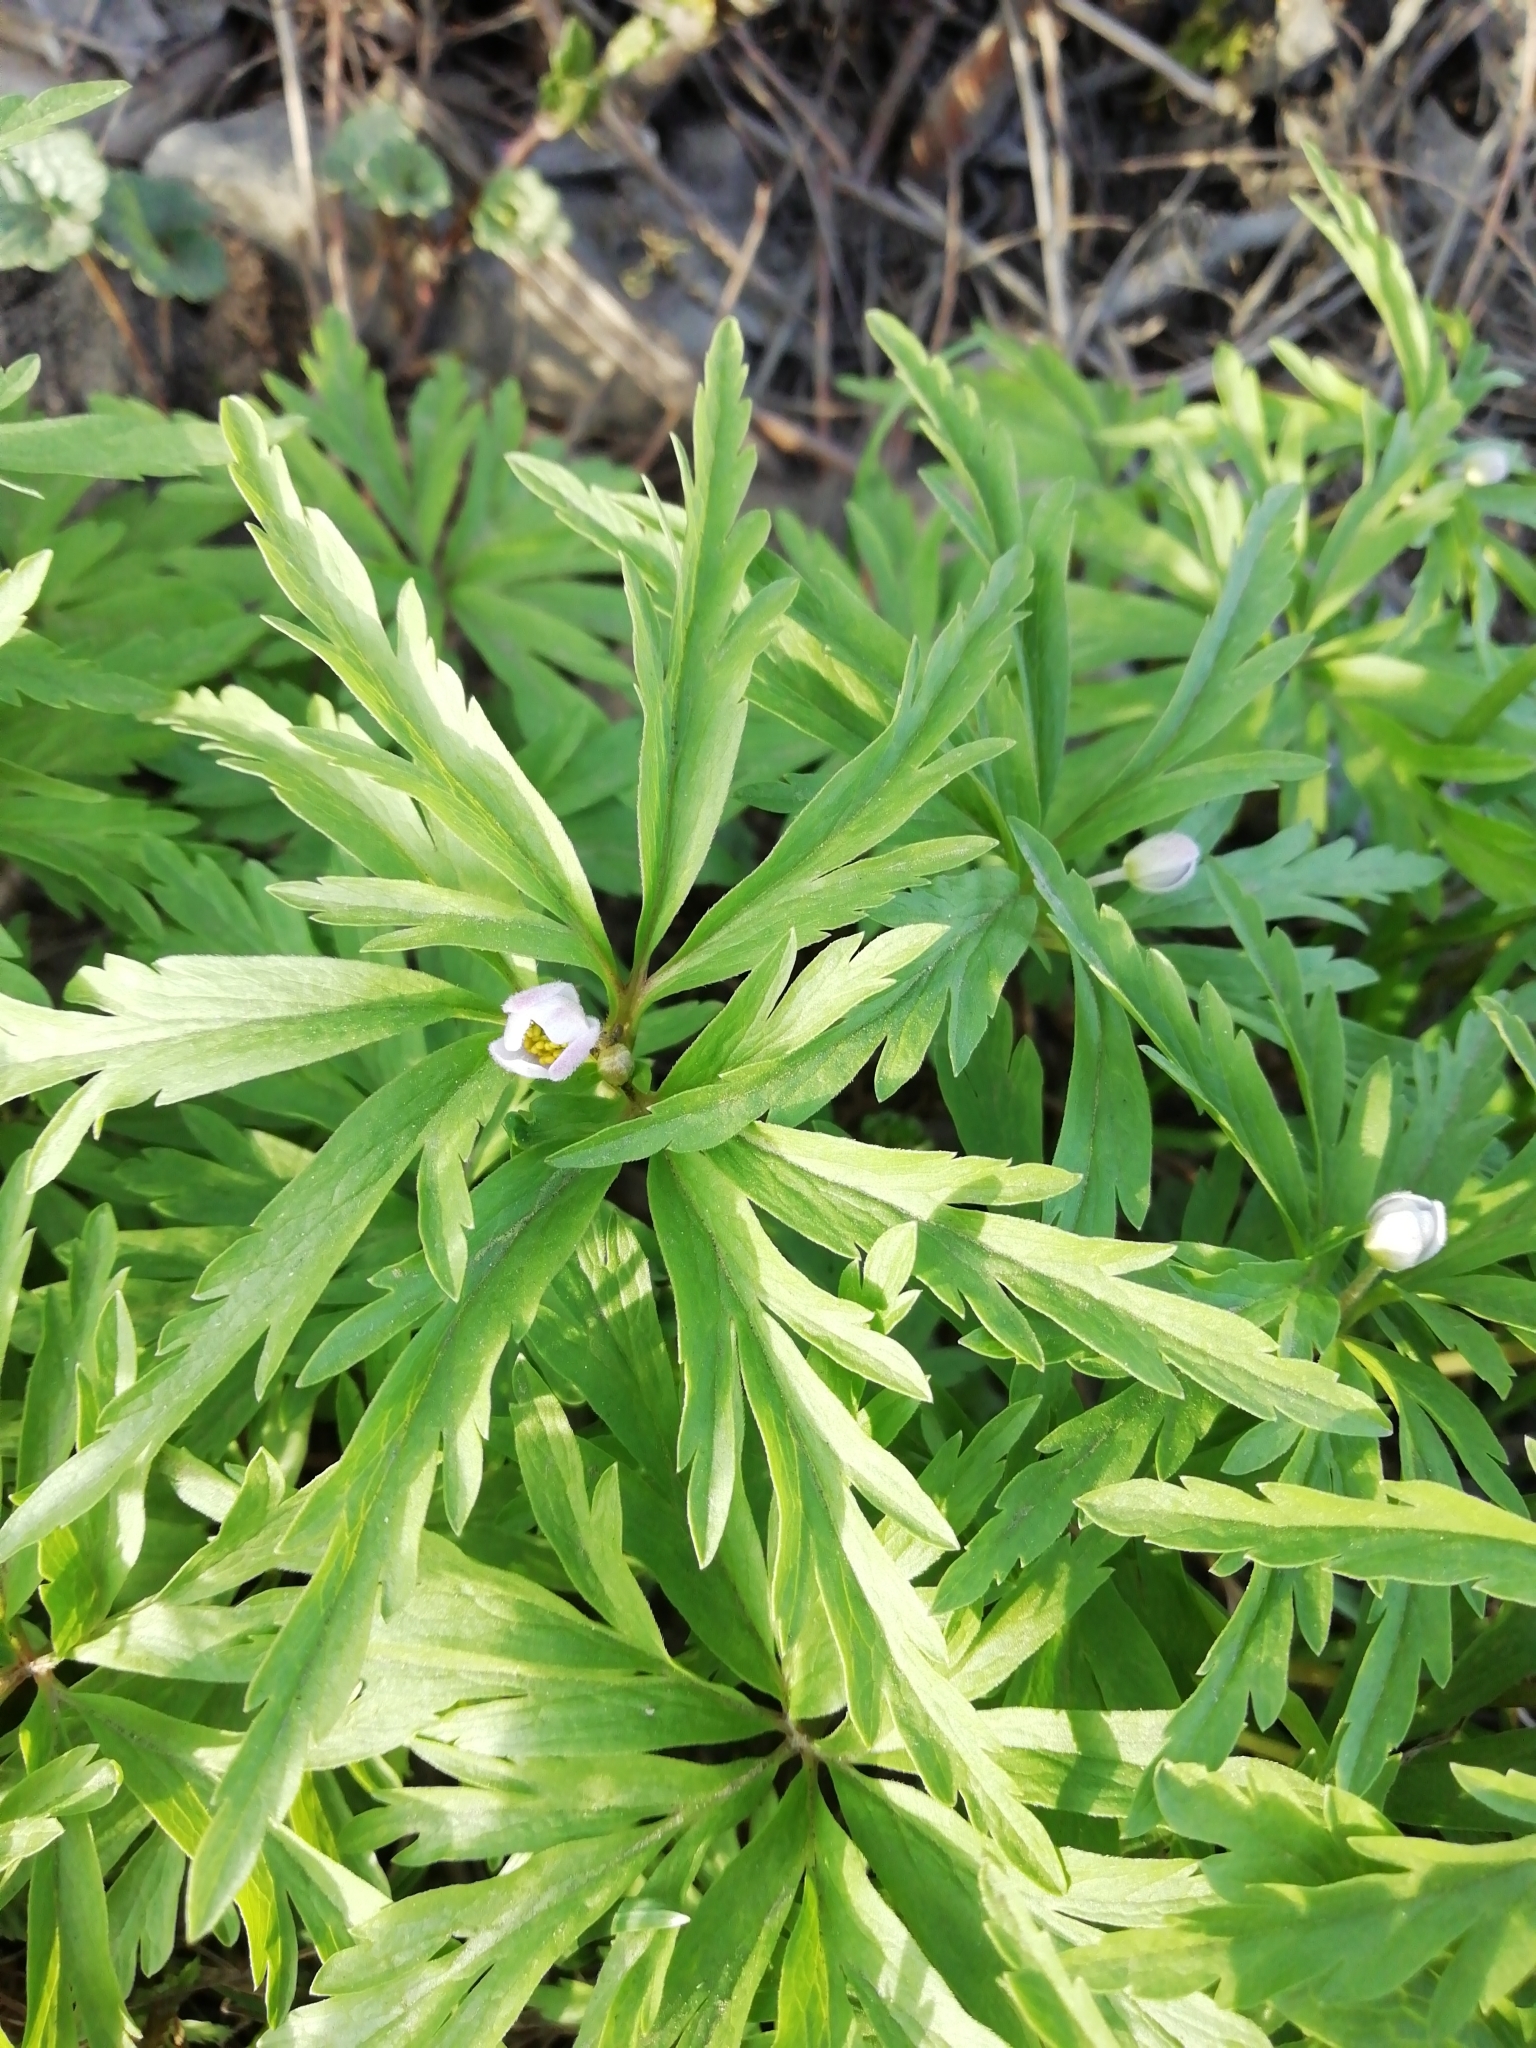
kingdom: Plantae
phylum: Tracheophyta
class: Magnoliopsida
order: Ranunculales
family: Ranunculaceae
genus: Anemone
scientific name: Anemone caerulea
